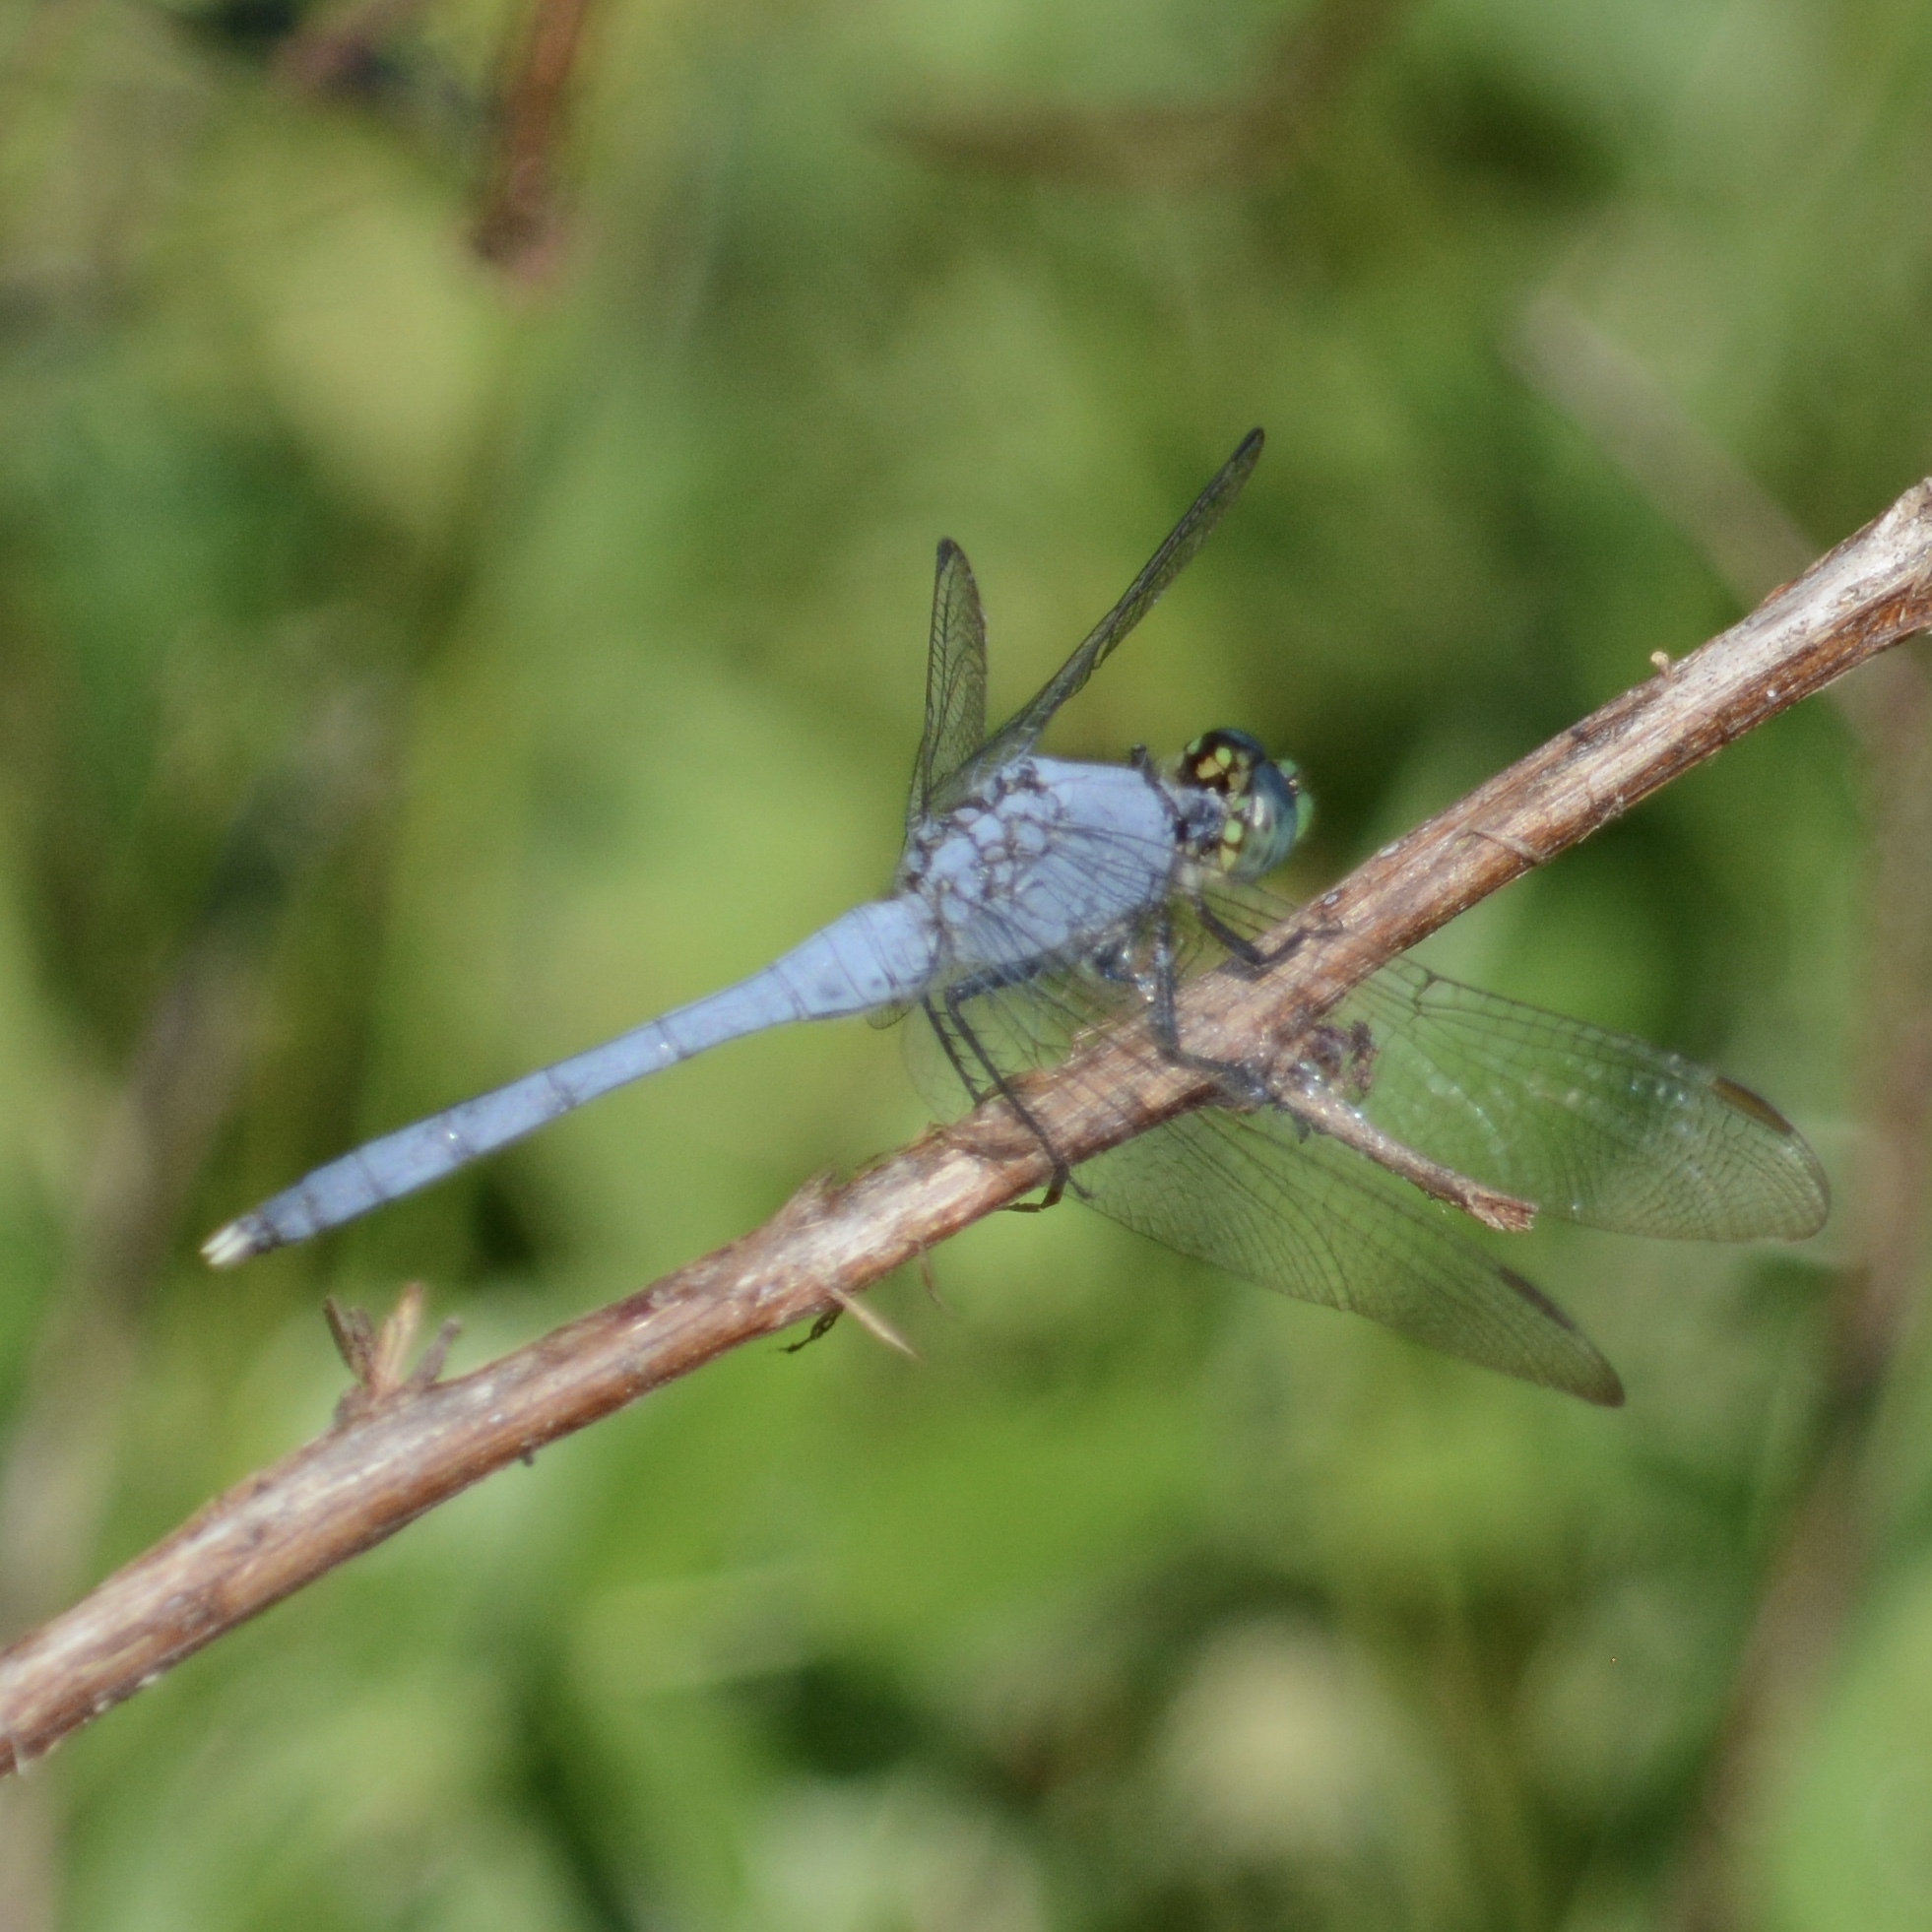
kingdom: Animalia
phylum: Arthropoda
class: Insecta
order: Odonata
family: Libellulidae
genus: Erythemis
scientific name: Erythemis simplicicollis
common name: Eastern pondhawk
